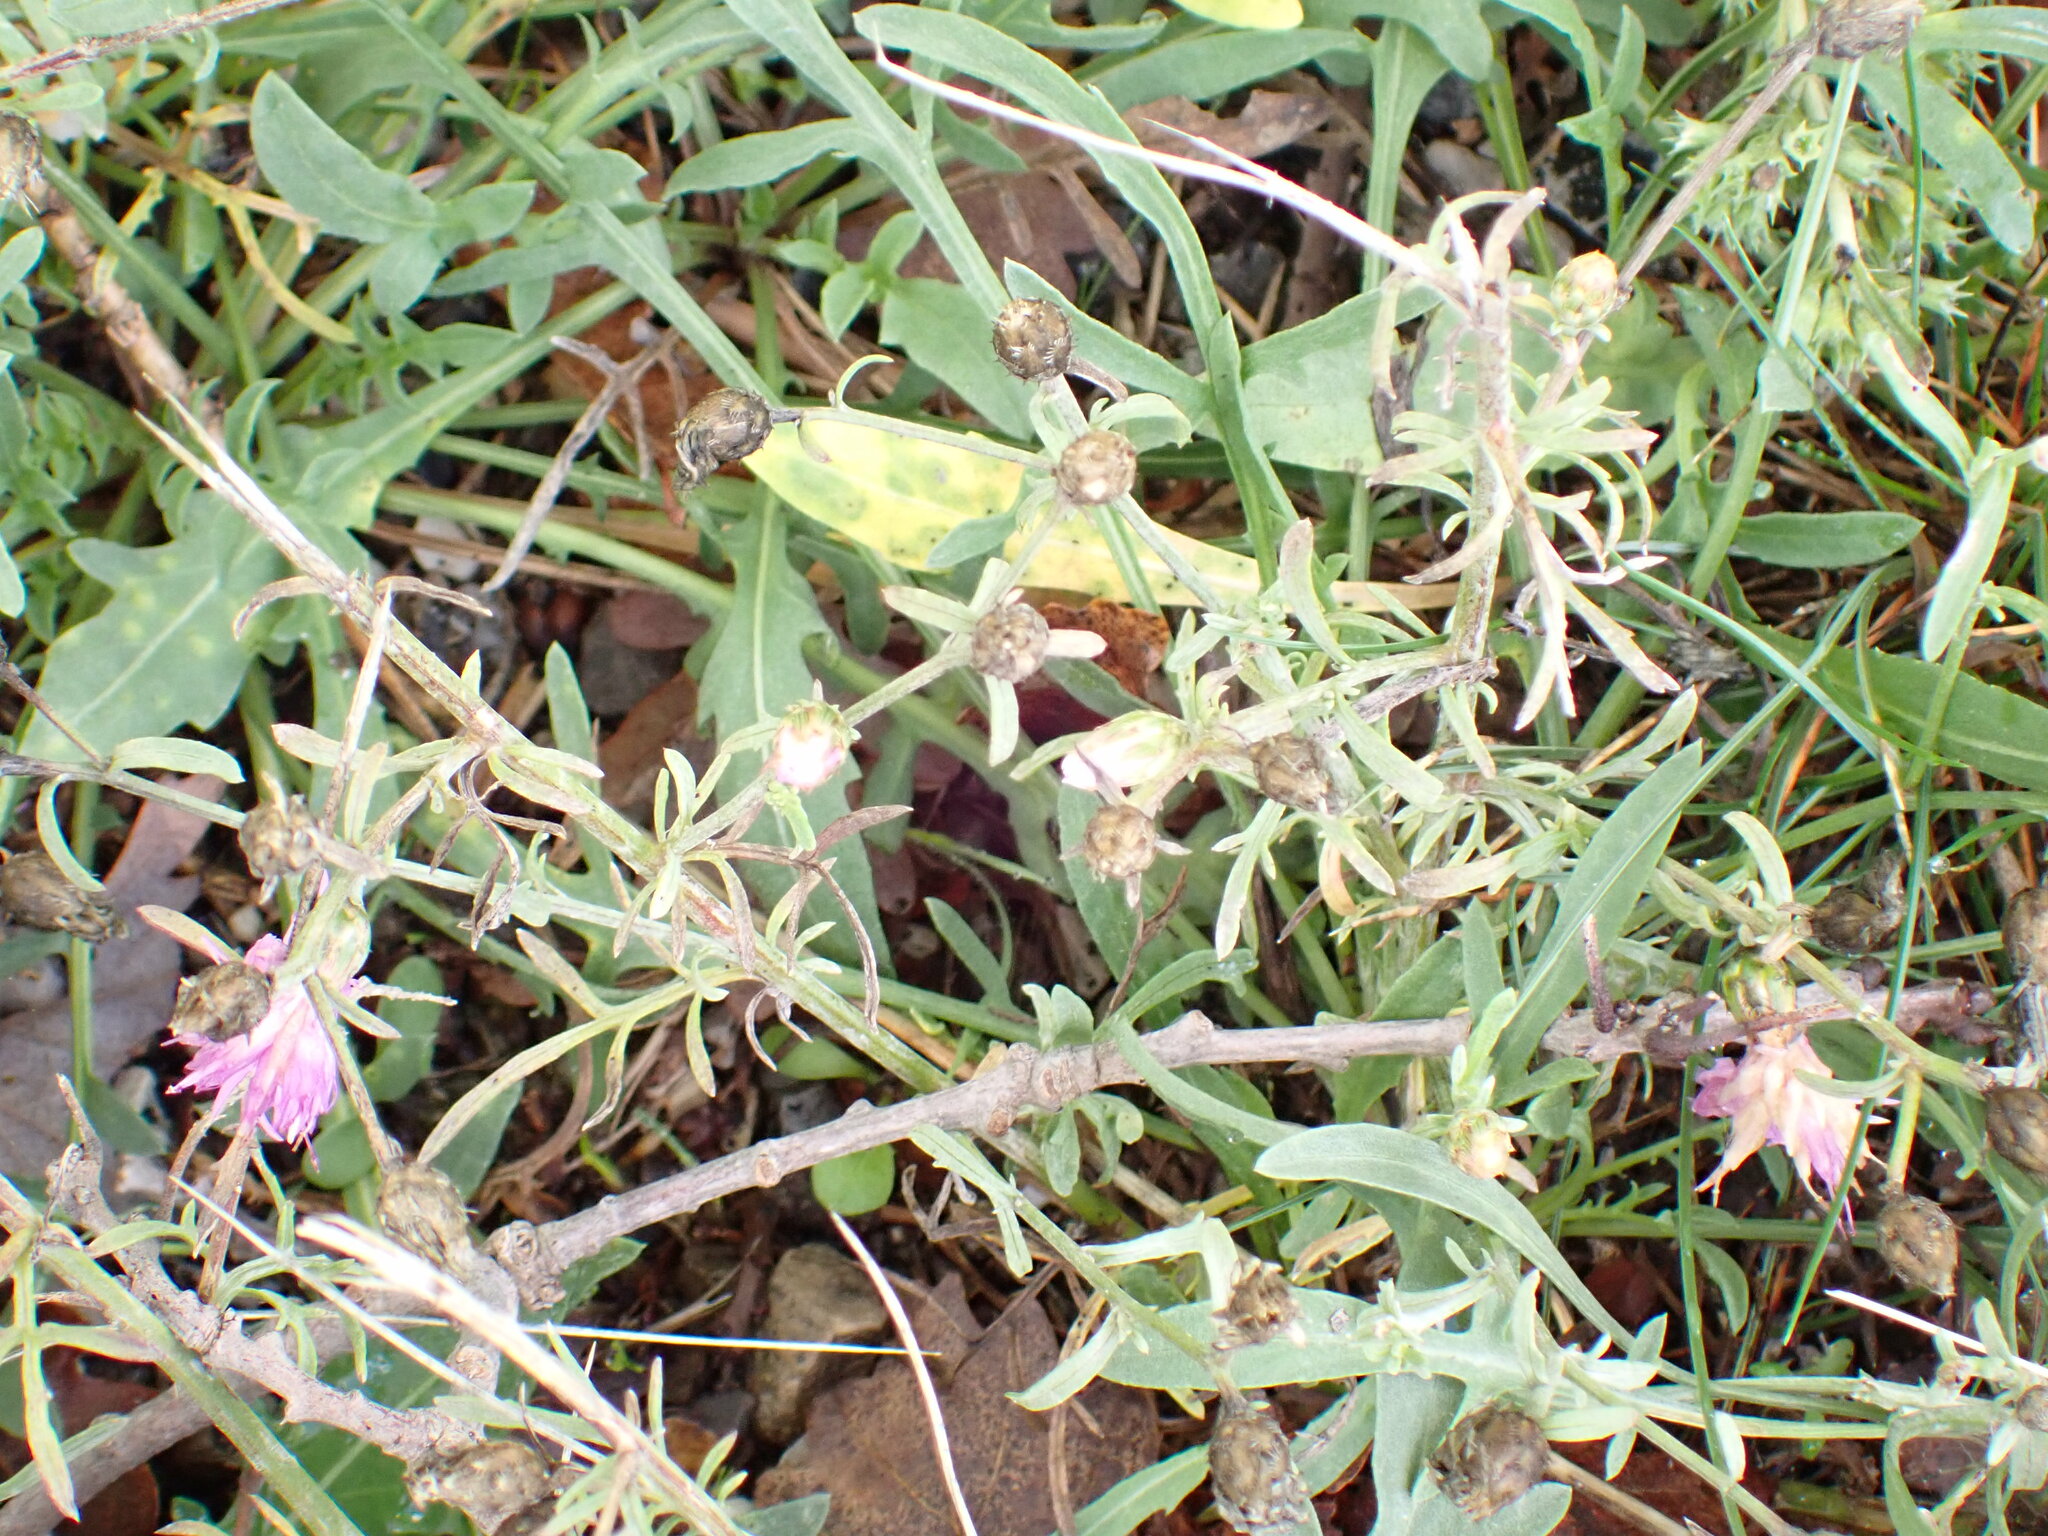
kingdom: Plantae
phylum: Tracheophyta
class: Magnoliopsida
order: Asterales
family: Asteraceae
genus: Centaurea
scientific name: Centaurea paniculata
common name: Jersey knapweed
